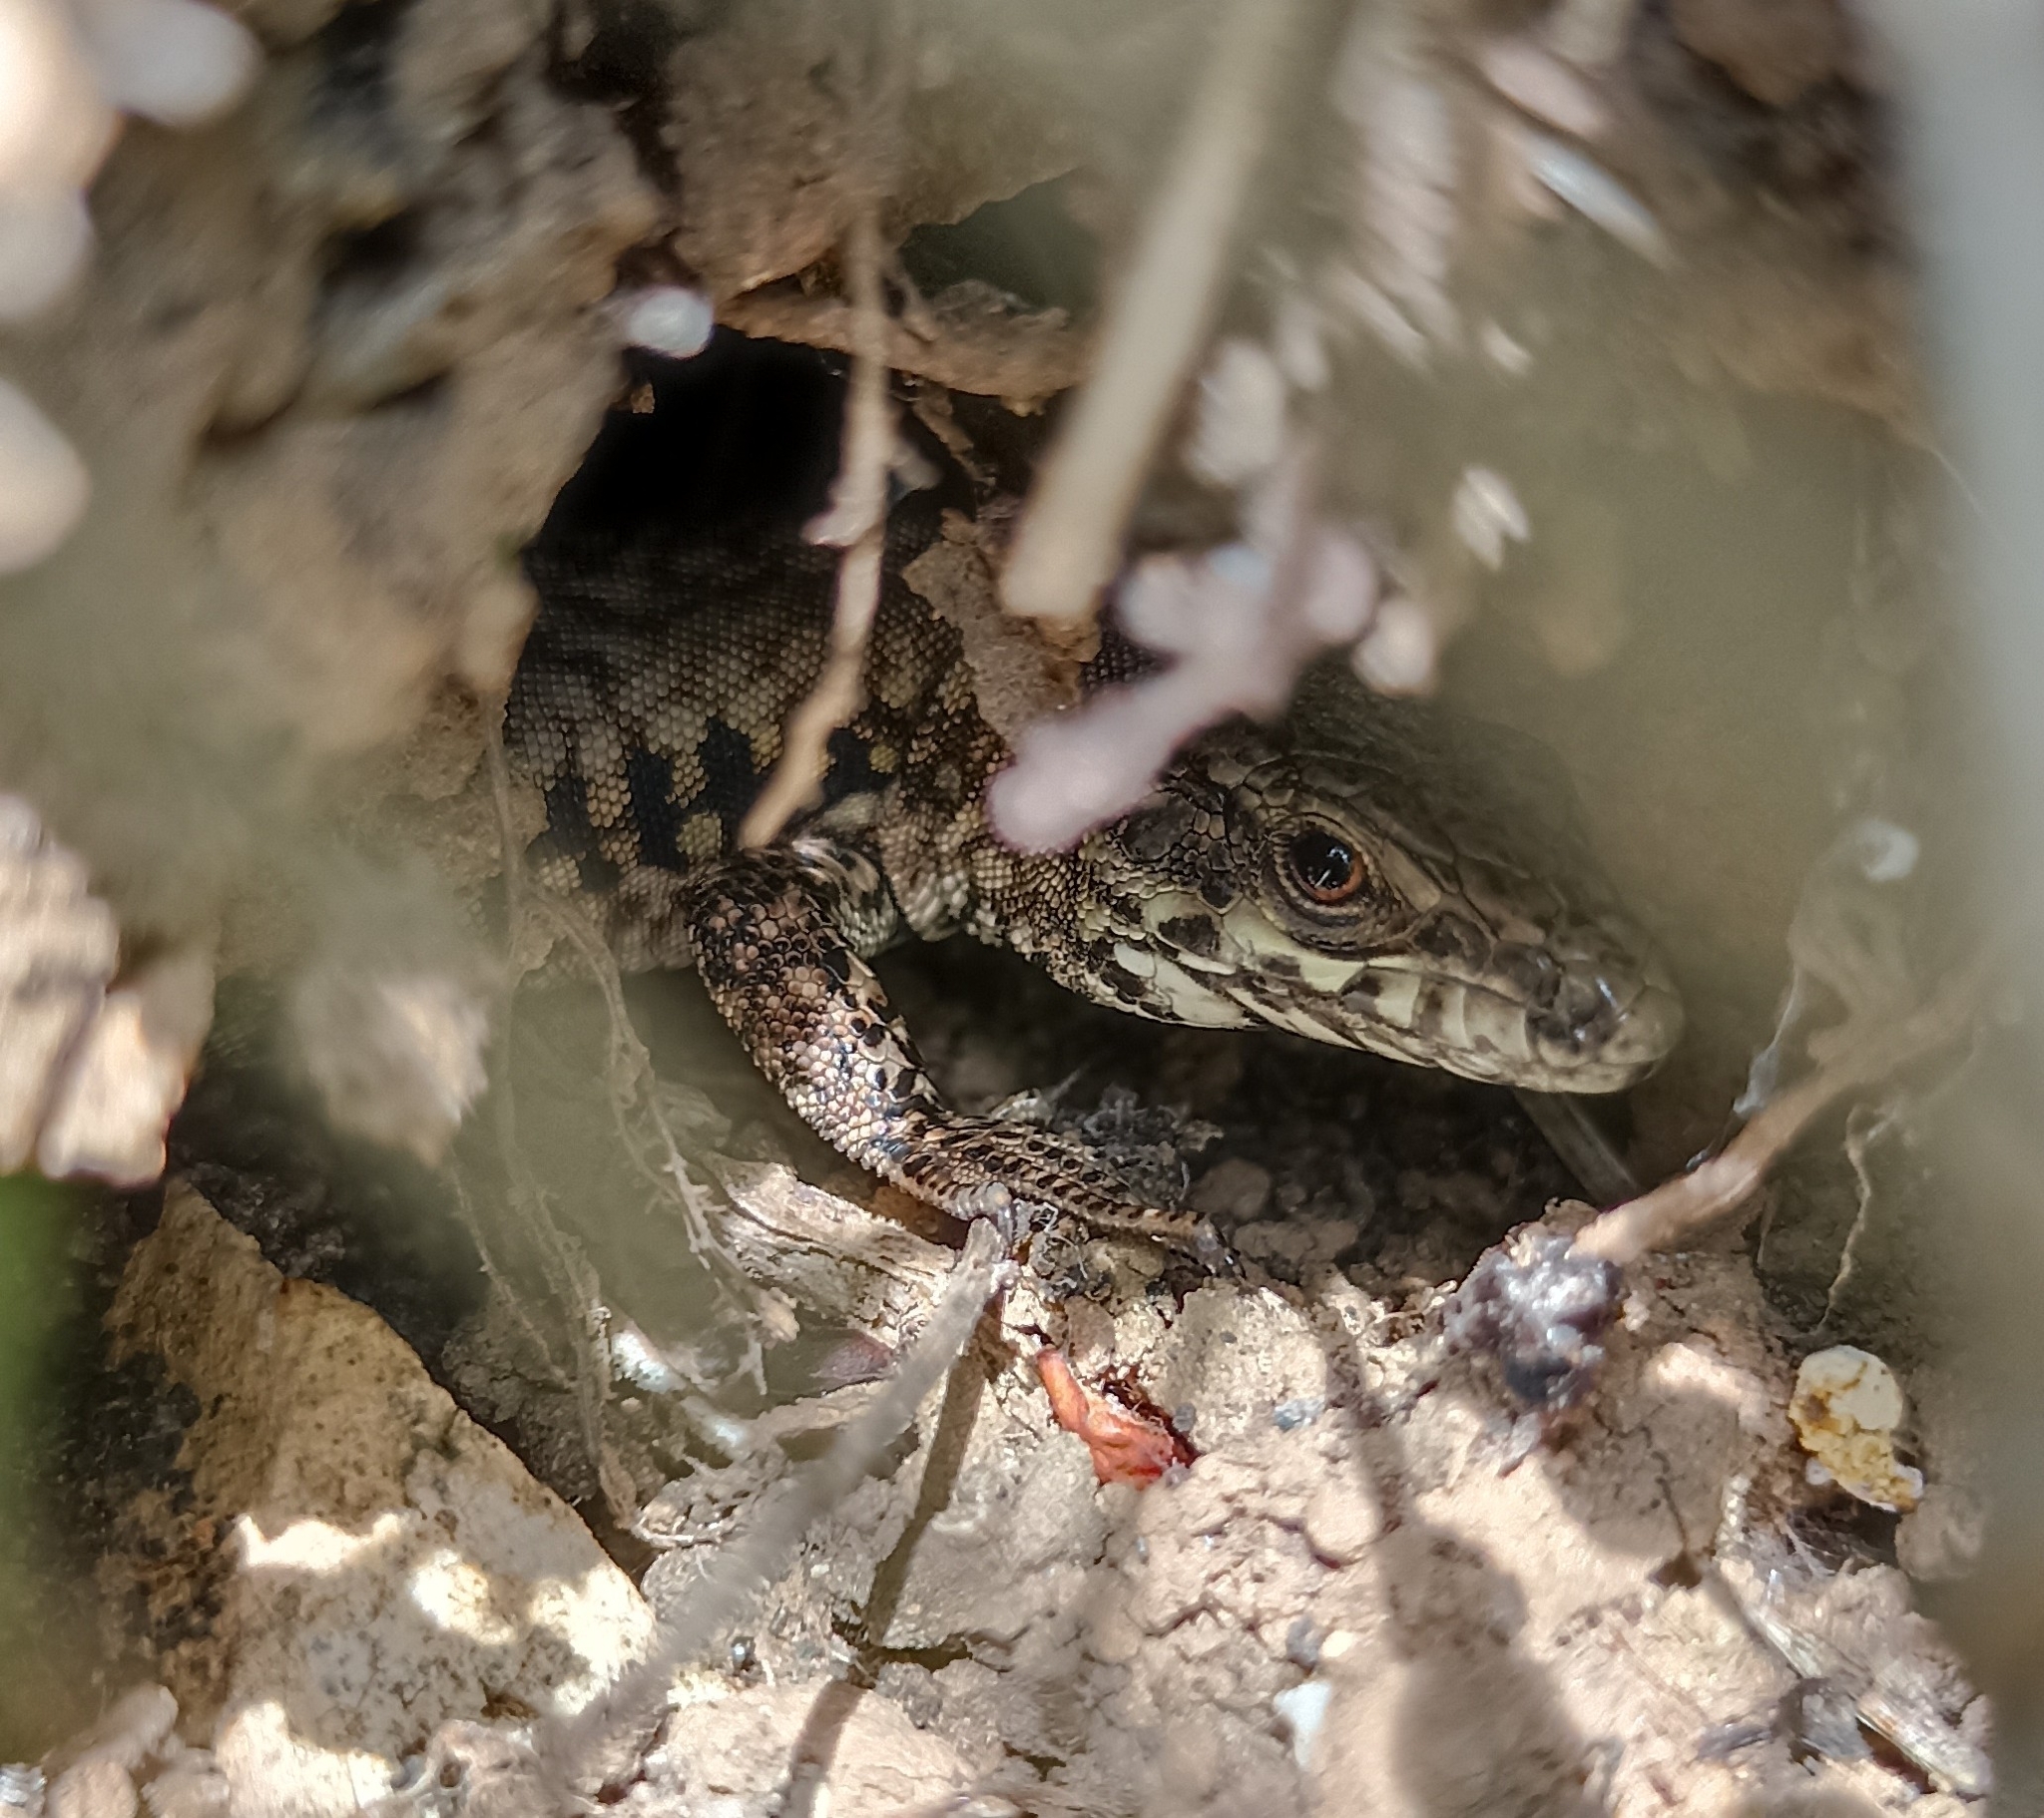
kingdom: Animalia
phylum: Chordata
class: Squamata
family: Lacertidae
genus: Podarcis
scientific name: Podarcis muralis
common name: Common wall lizard
